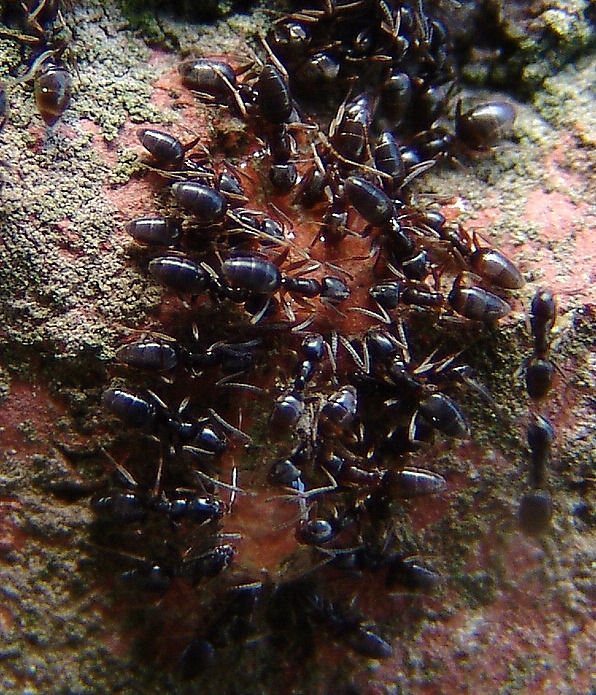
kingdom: Animalia
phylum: Arthropoda
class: Insecta
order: Hymenoptera
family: Formicidae
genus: Tapinoma
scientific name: Tapinoma sessile
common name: Odorous house ant
